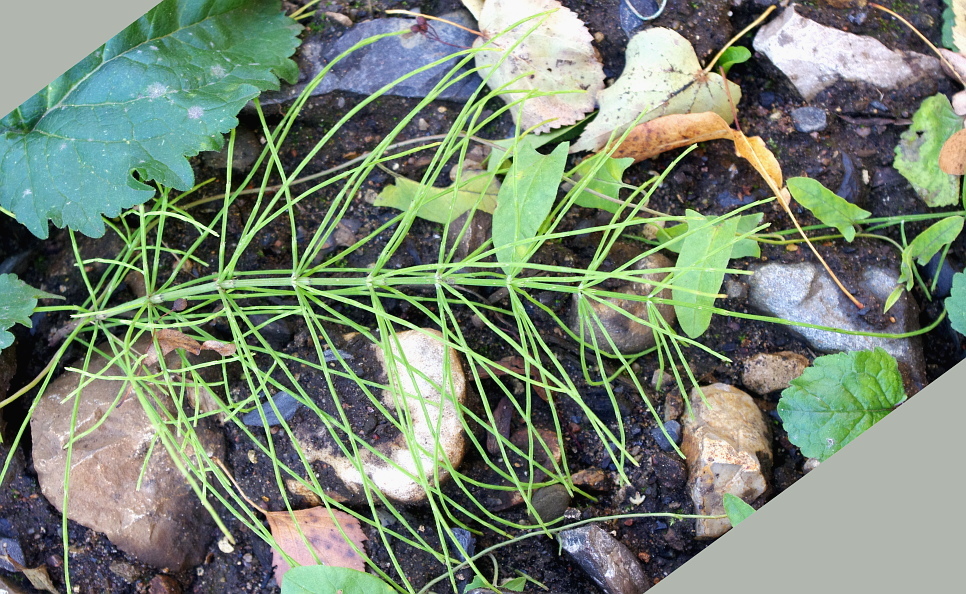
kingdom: Plantae
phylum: Tracheophyta
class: Polypodiopsida
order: Equisetales
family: Equisetaceae
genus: Equisetum
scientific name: Equisetum arvense
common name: Field horsetail
